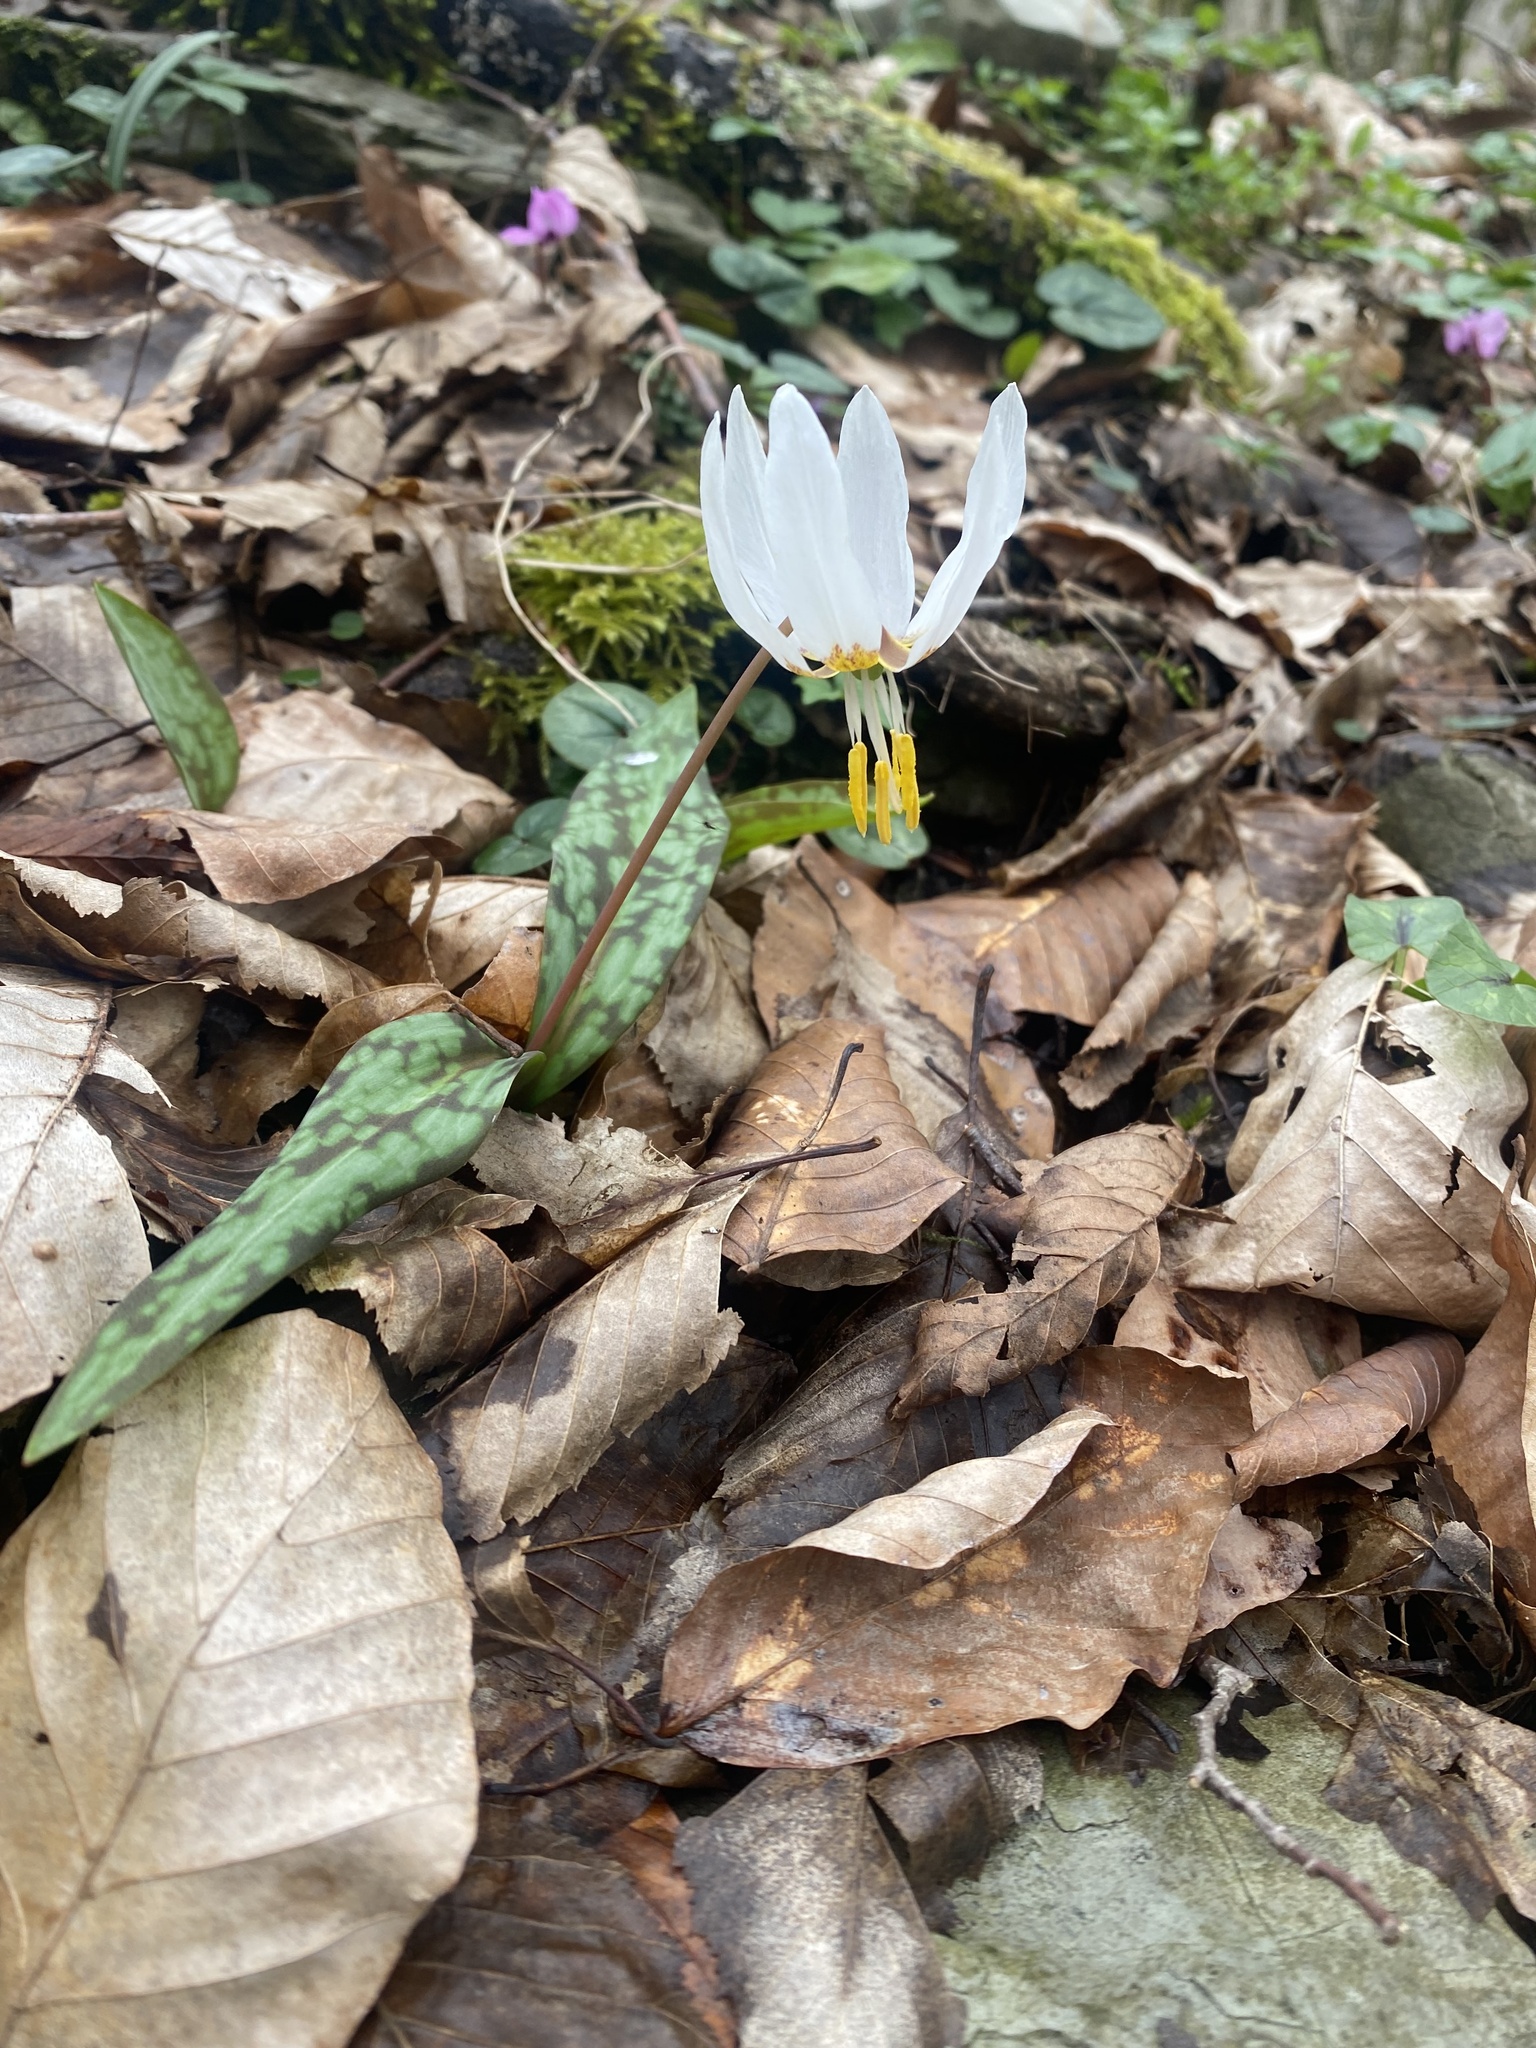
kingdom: Plantae
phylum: Tracheophyta
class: Liliopsida
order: Liliales
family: Liliaceae
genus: Erythronium
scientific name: Erythronium caucasicum
